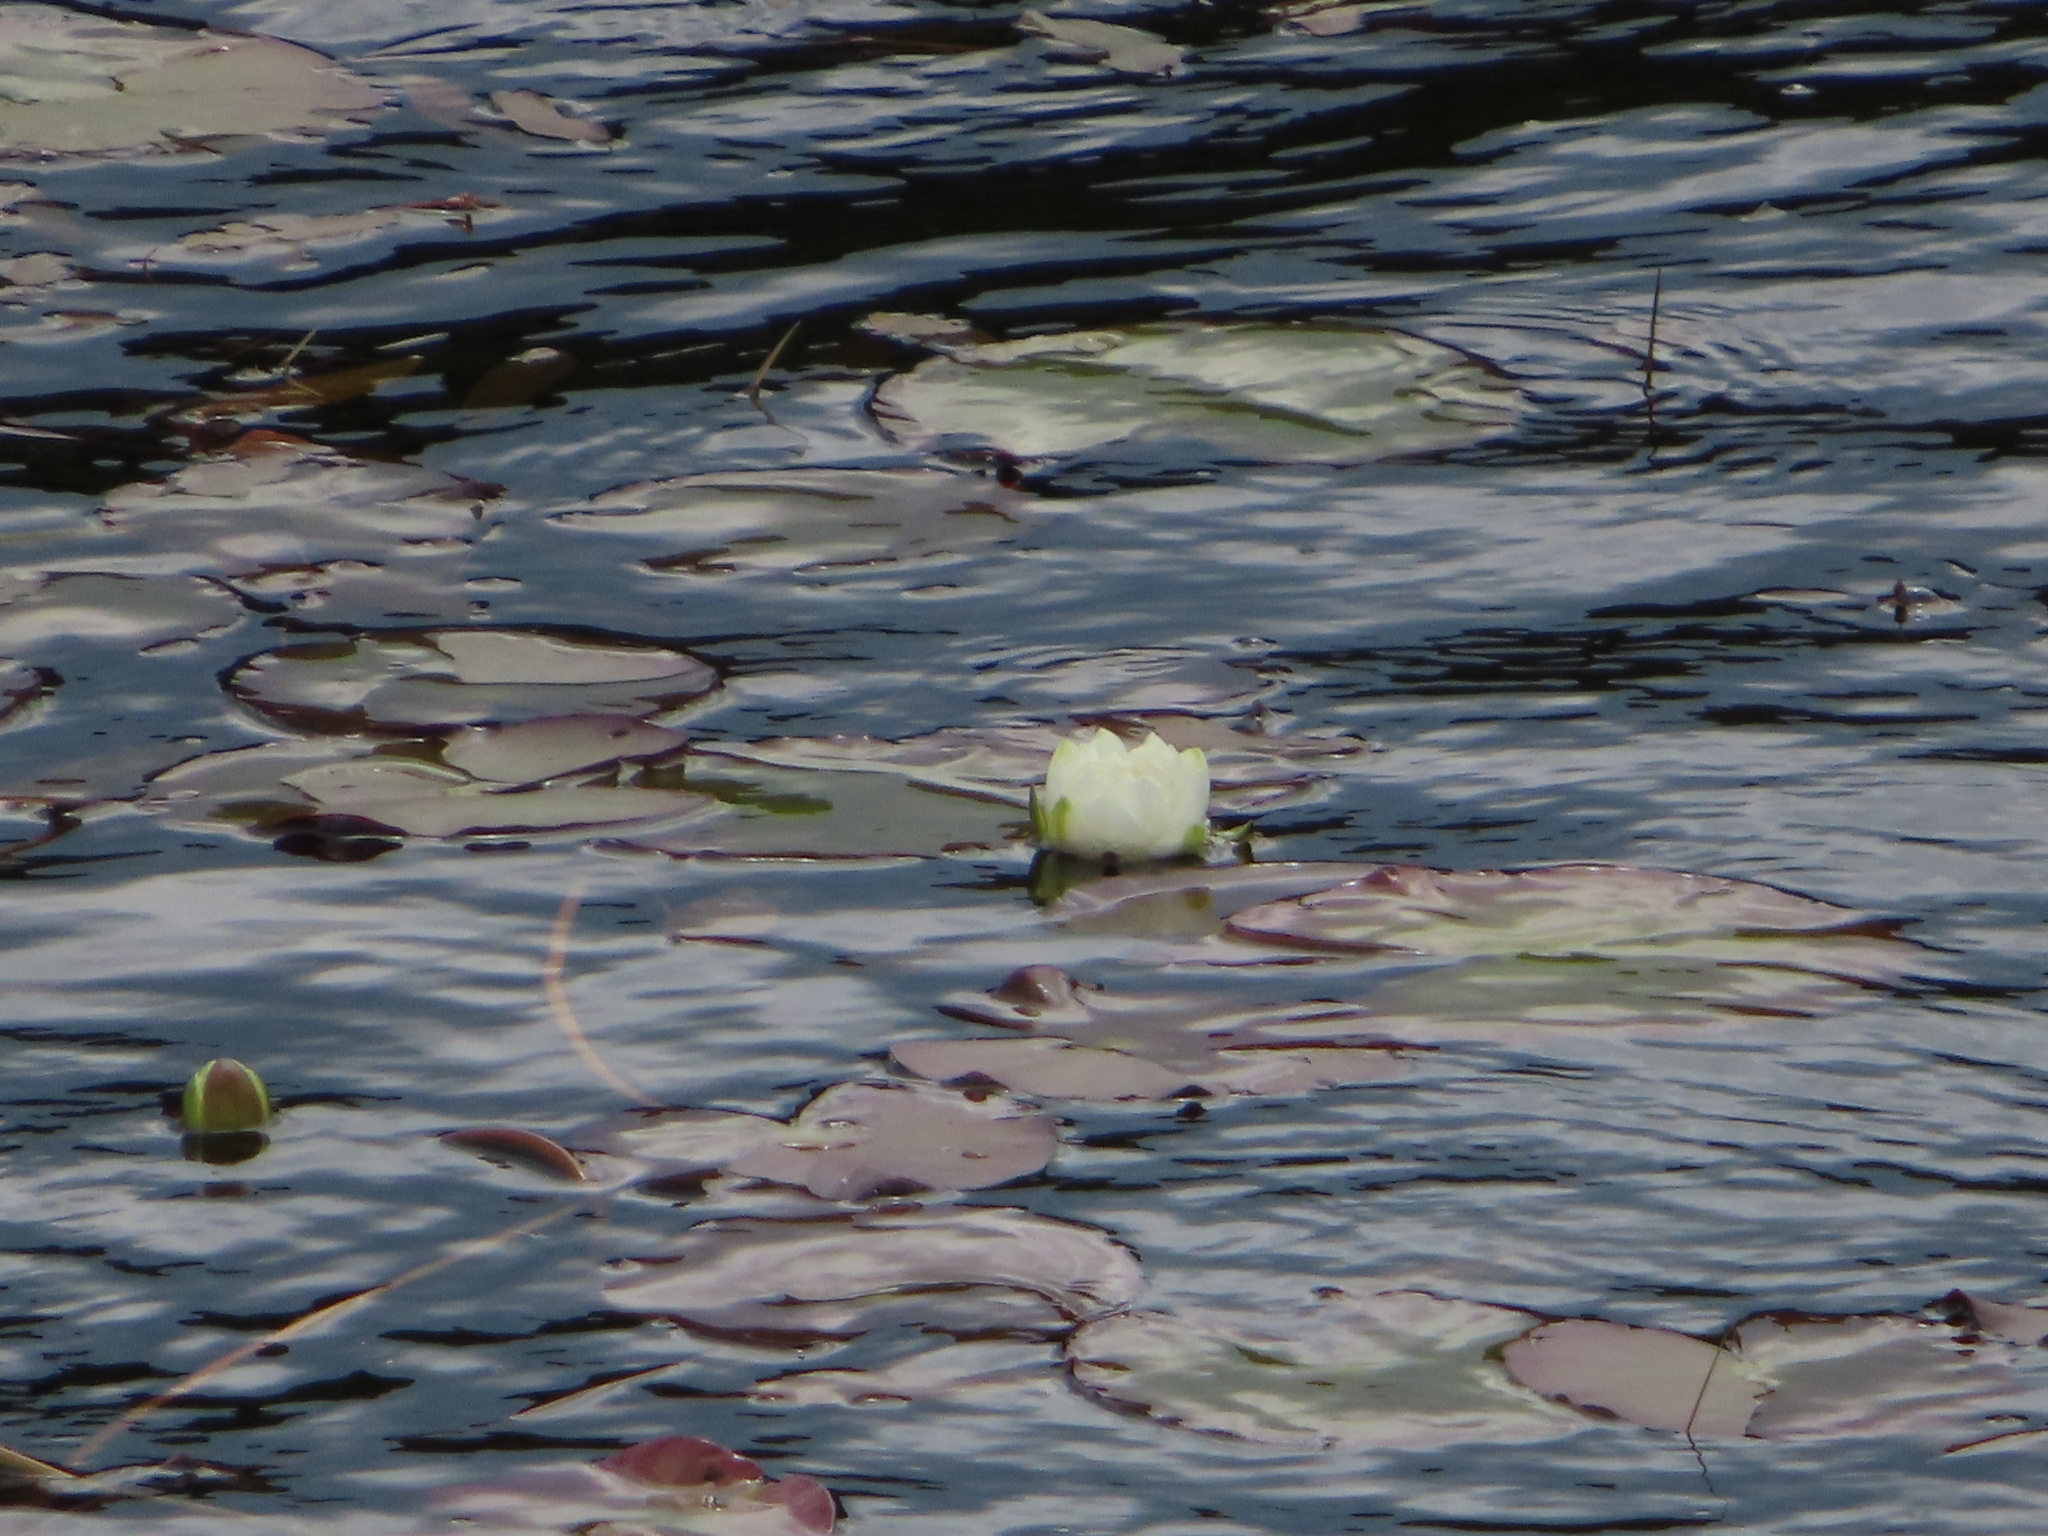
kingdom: Plantae
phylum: Tracheophyta
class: Magnoliopsida
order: Nymphaeales
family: Nymphaeaceae
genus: Nymphaea
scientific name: Nymphaea alba
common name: White water-lily
